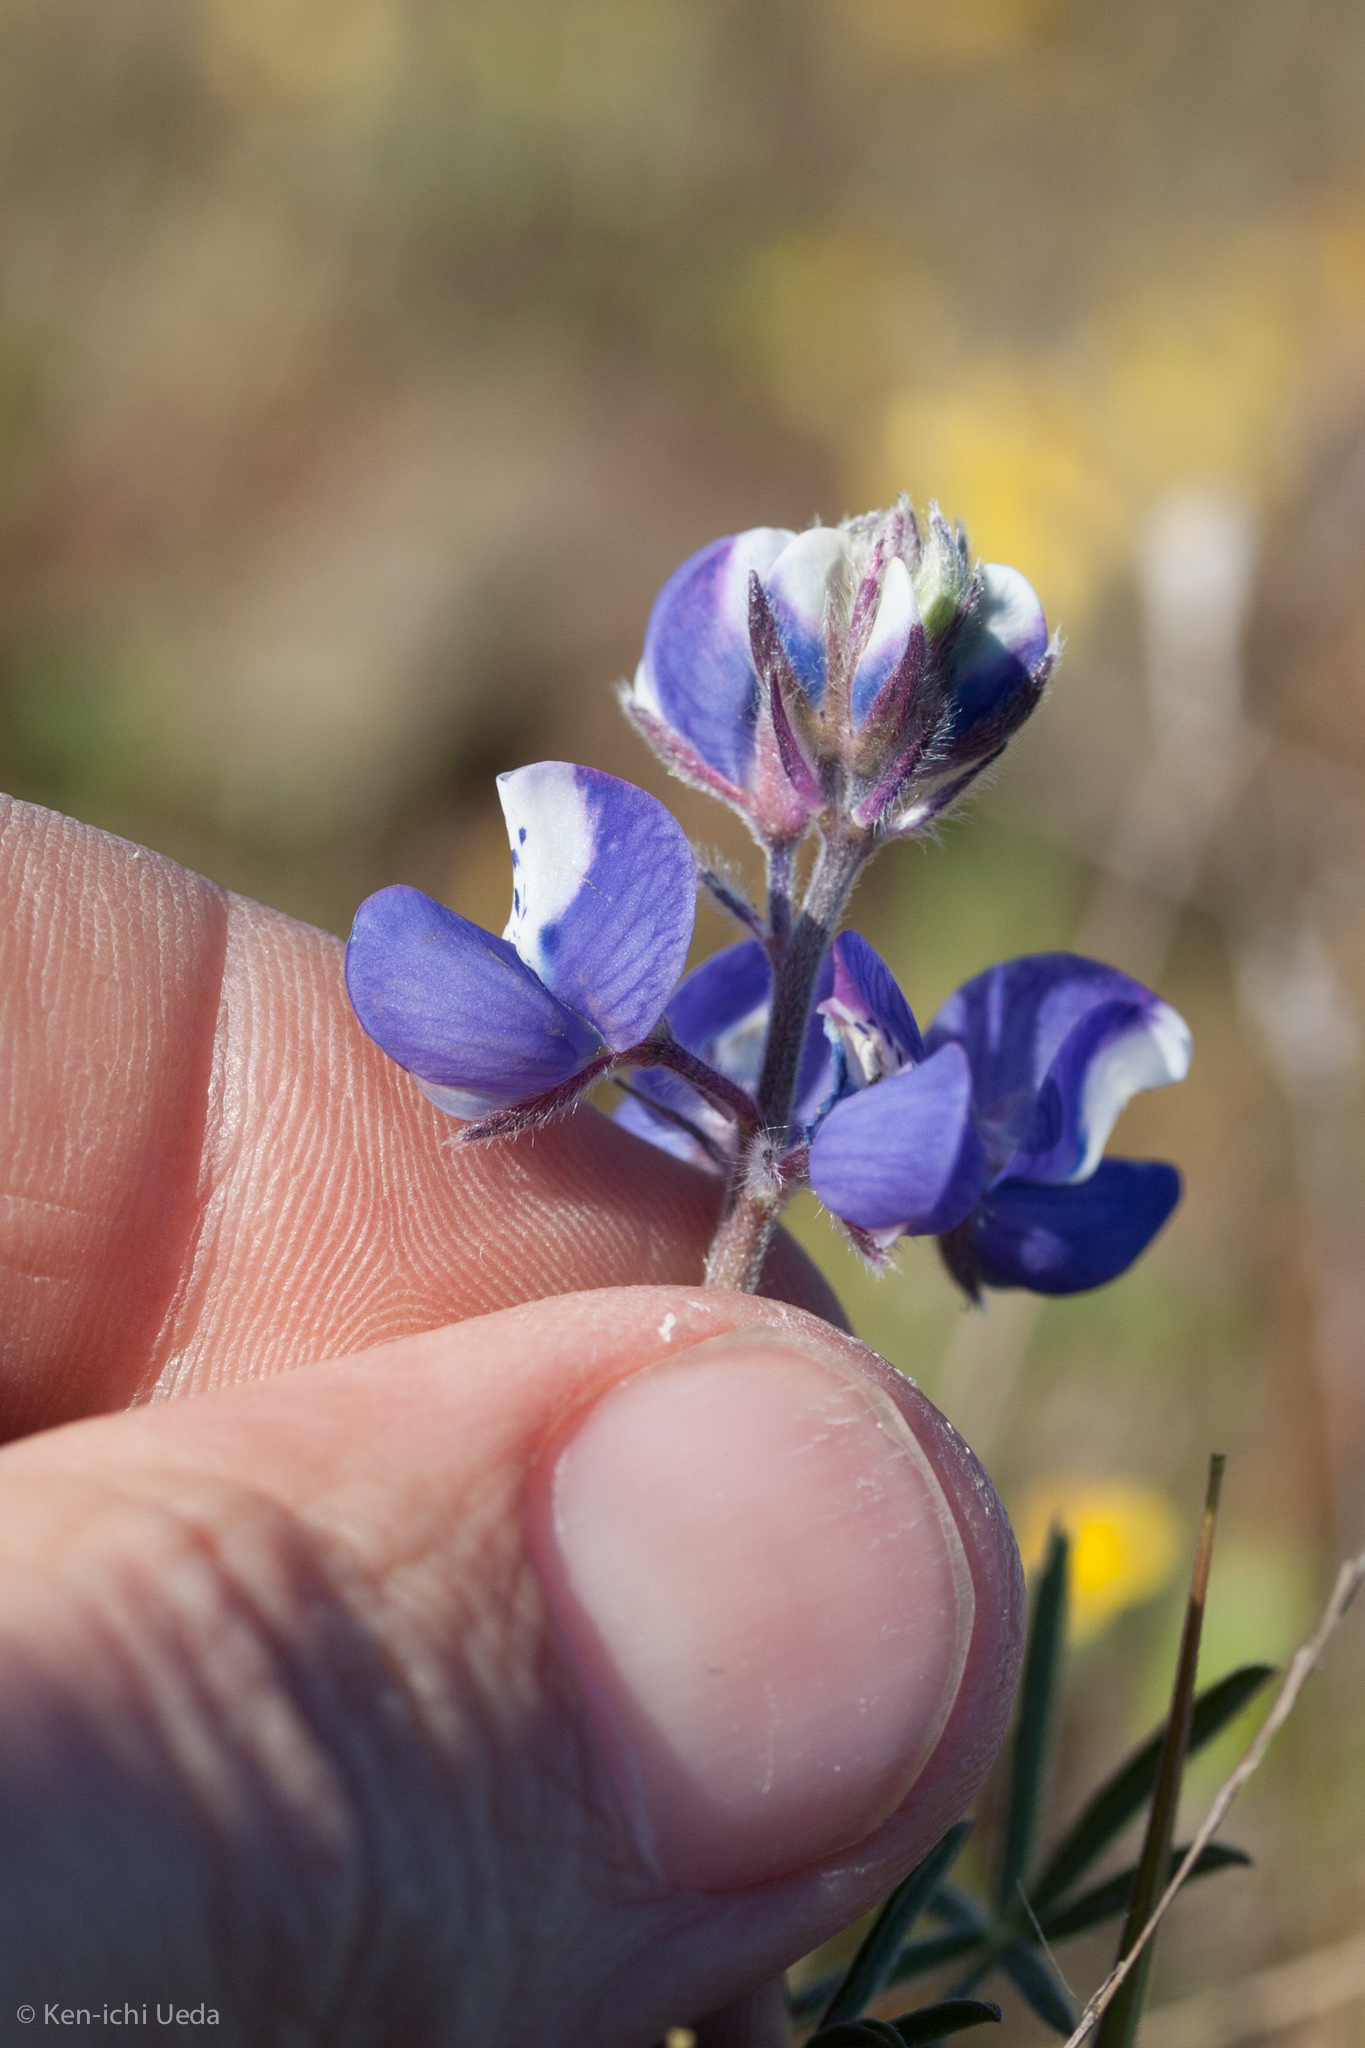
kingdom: Plantae
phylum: Tracheophyta
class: Magnoliopsida
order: Fabales
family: Fabaceae
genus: Lupinus
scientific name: Lupinus nanus
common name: Orean blue lupin
